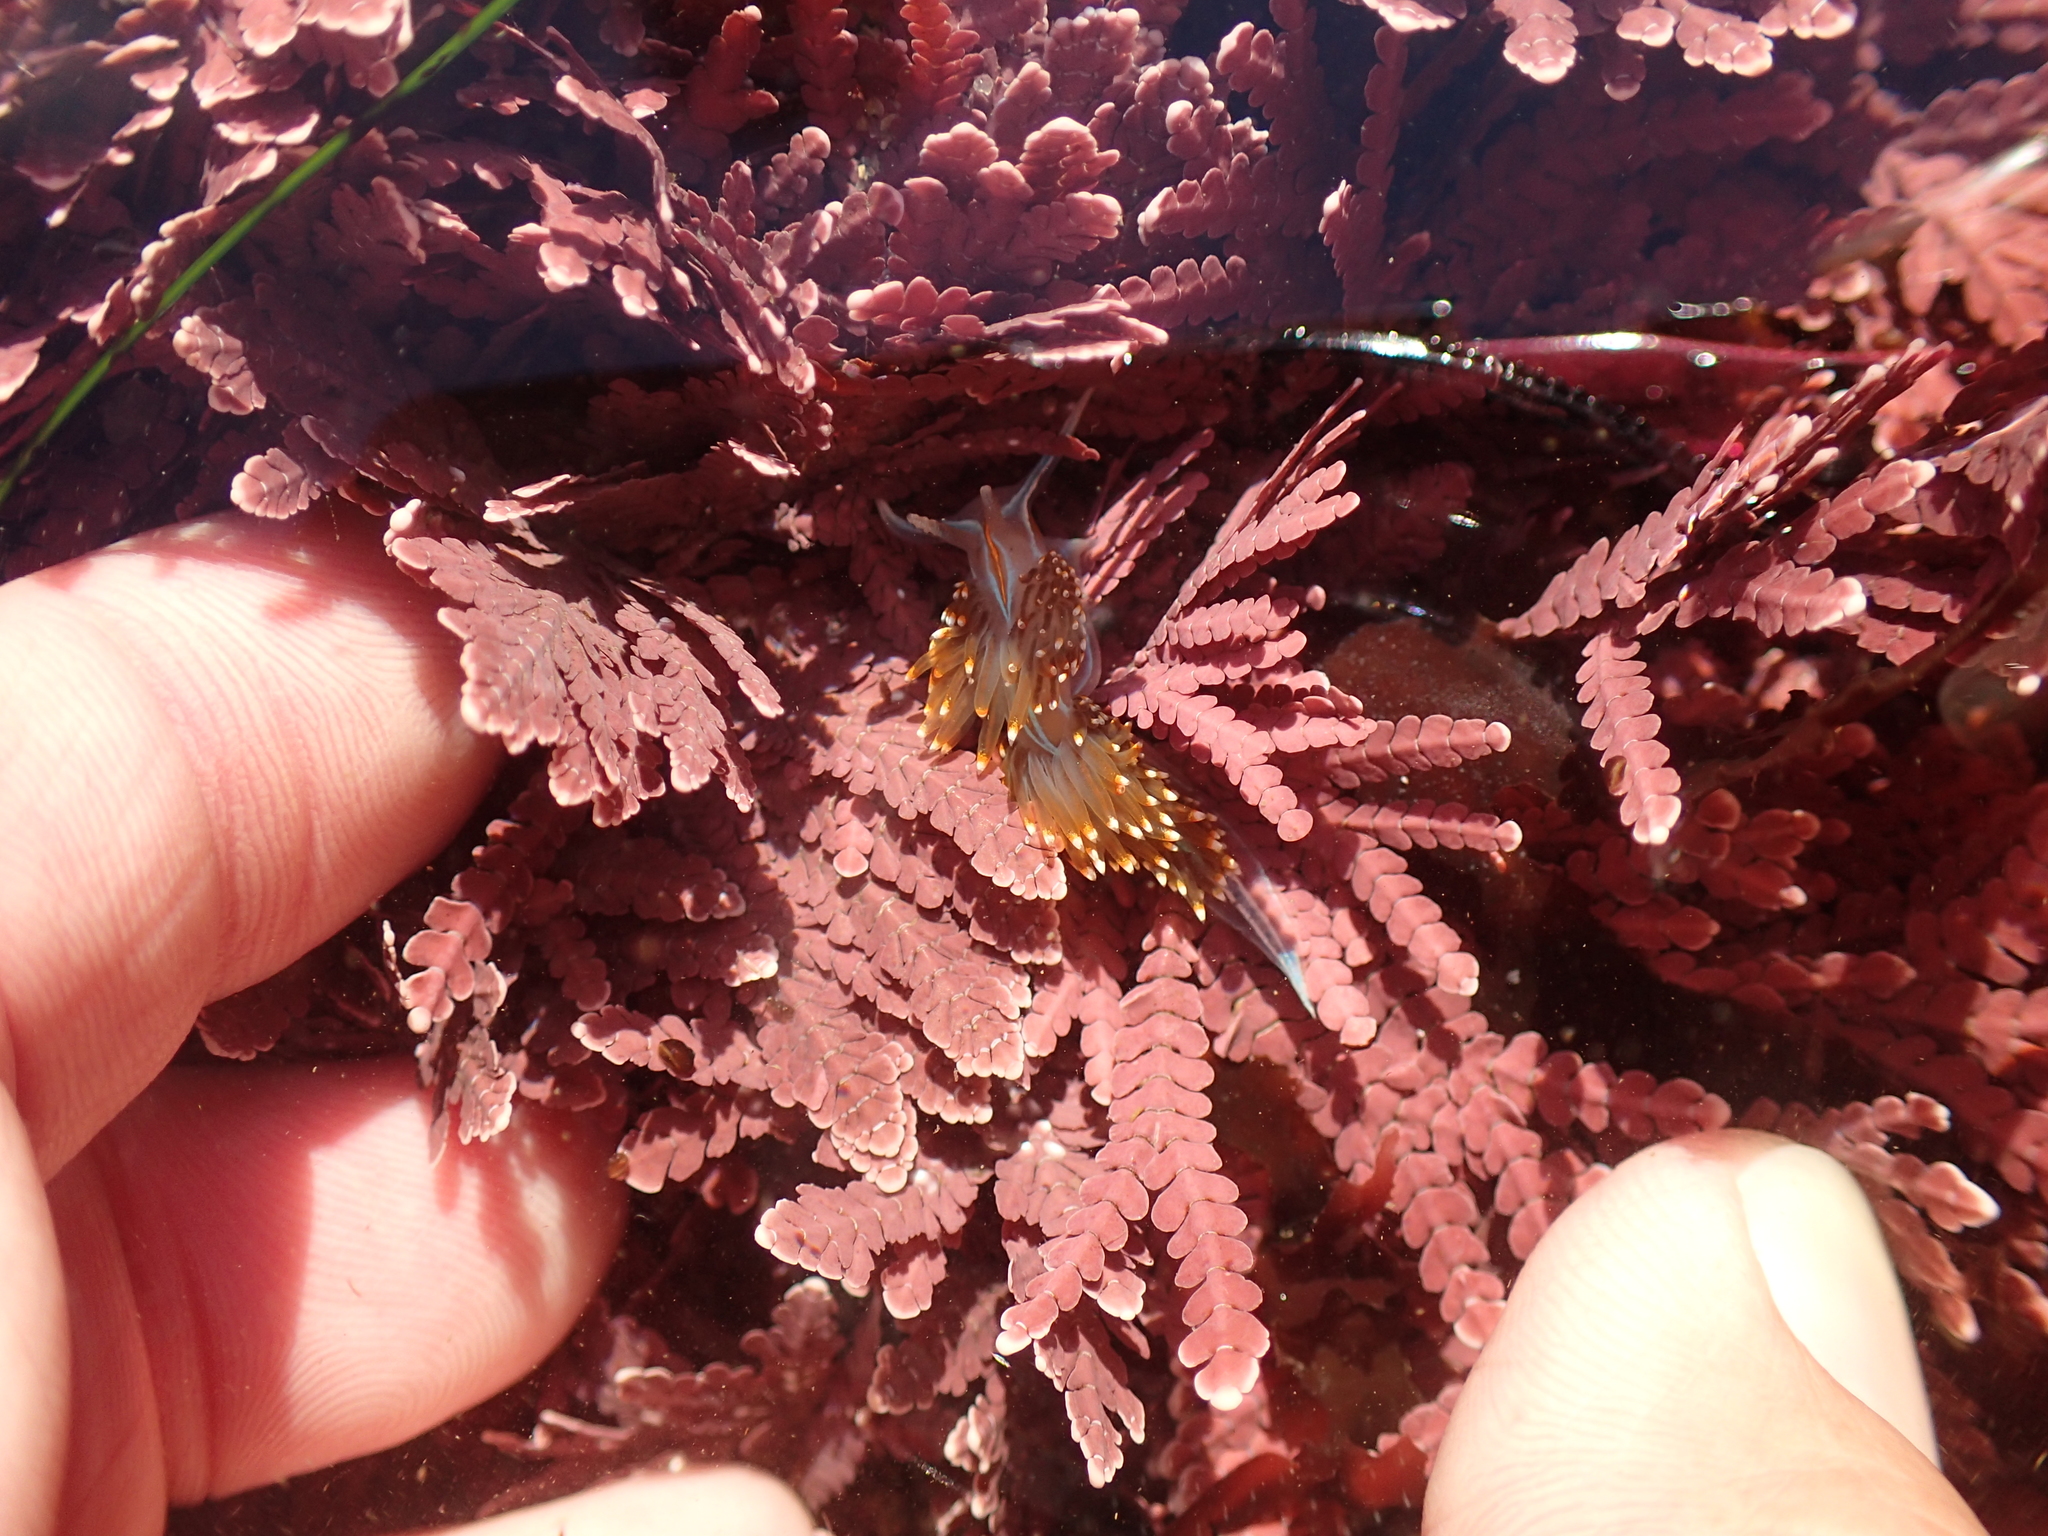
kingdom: Animalia
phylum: Mollusca
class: Gastropoda
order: Nudibranchia
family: Myrrhinidae
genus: Hermissenda
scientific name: Hermissenda opalescens
